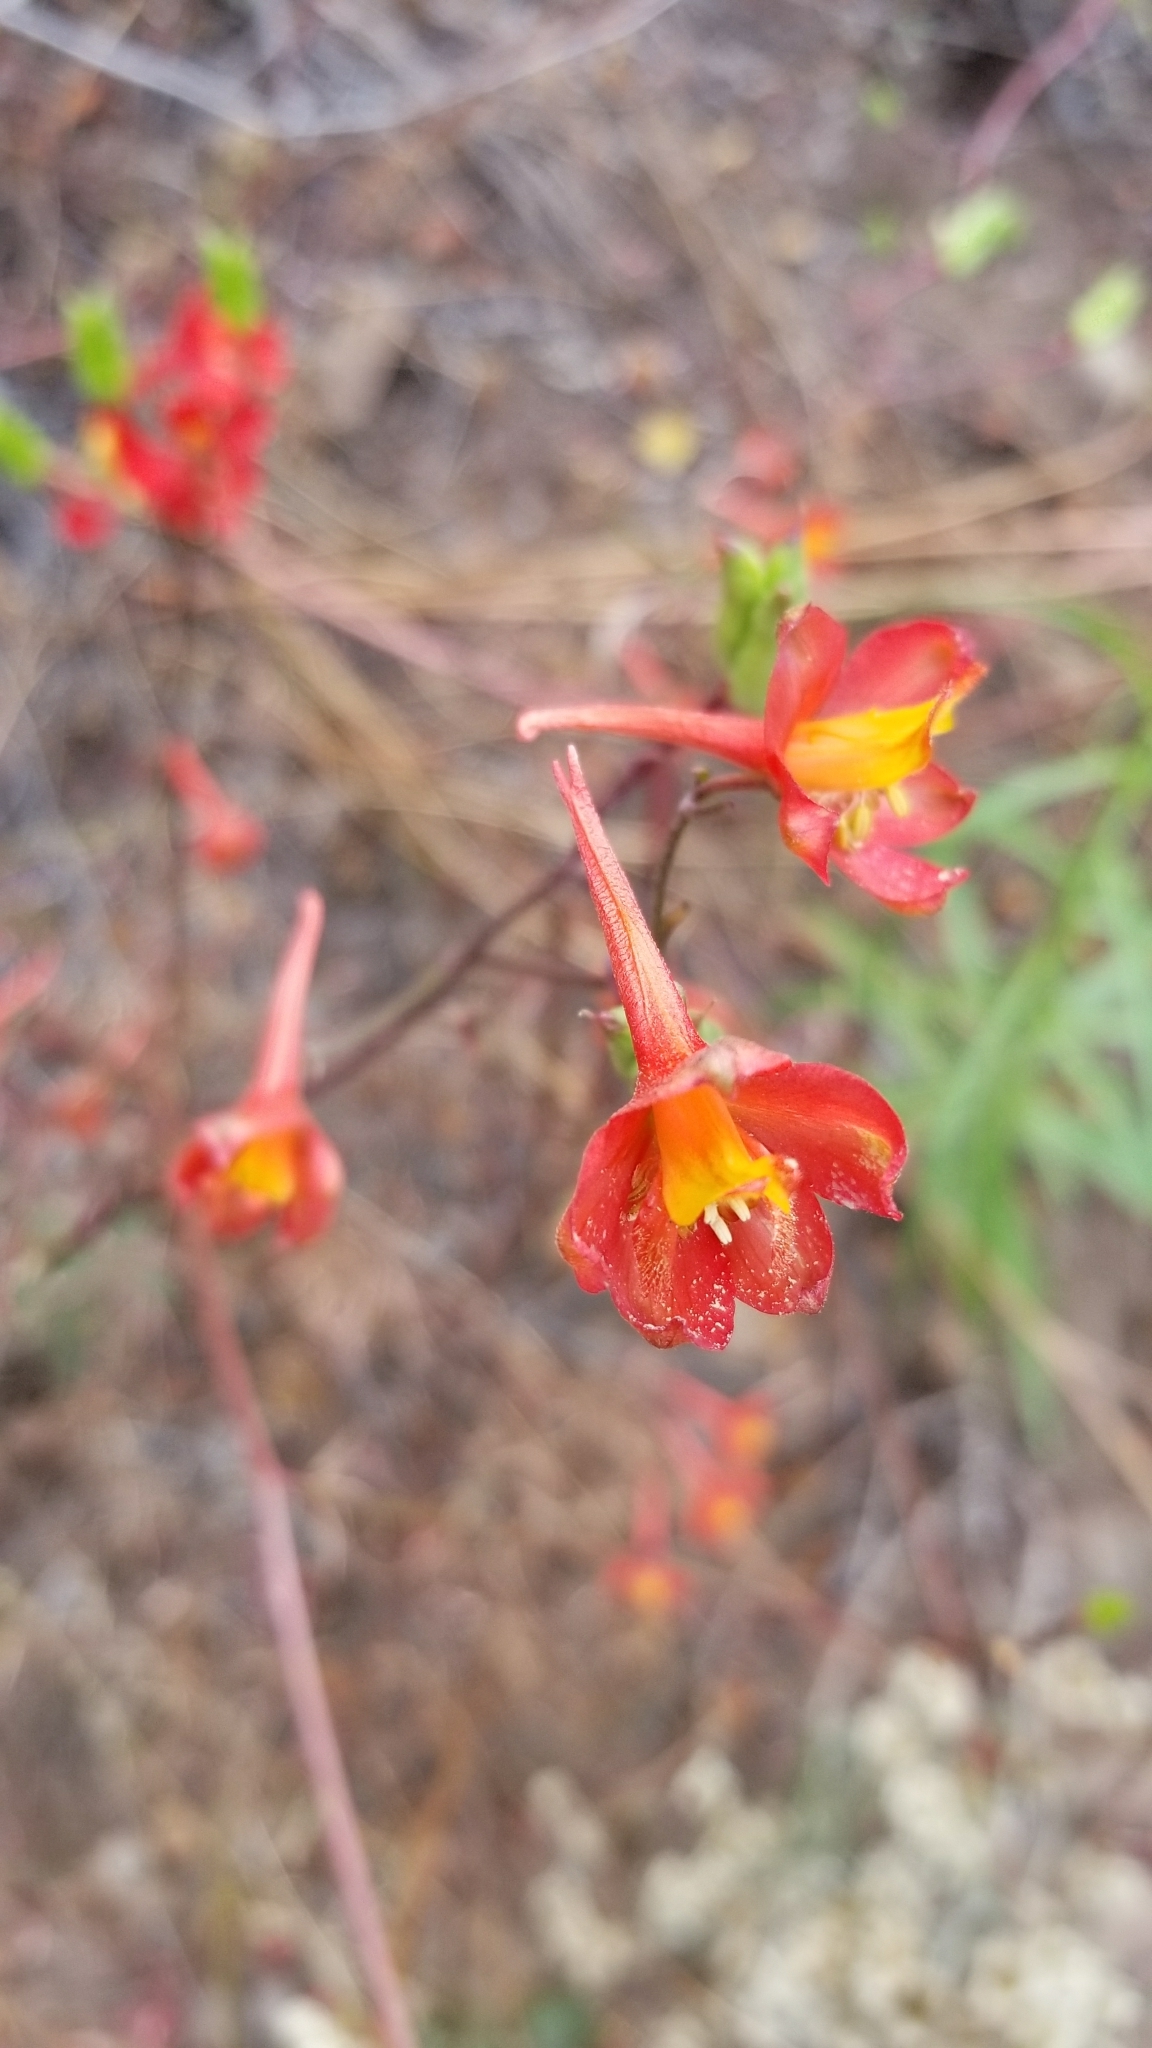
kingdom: Plantae
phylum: Tracheophyta
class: Magnoliopsida
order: Ranunculales
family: Ranunculaceae
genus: Delphinium
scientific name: Delphinium cardinale
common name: Scarlet larkspur
